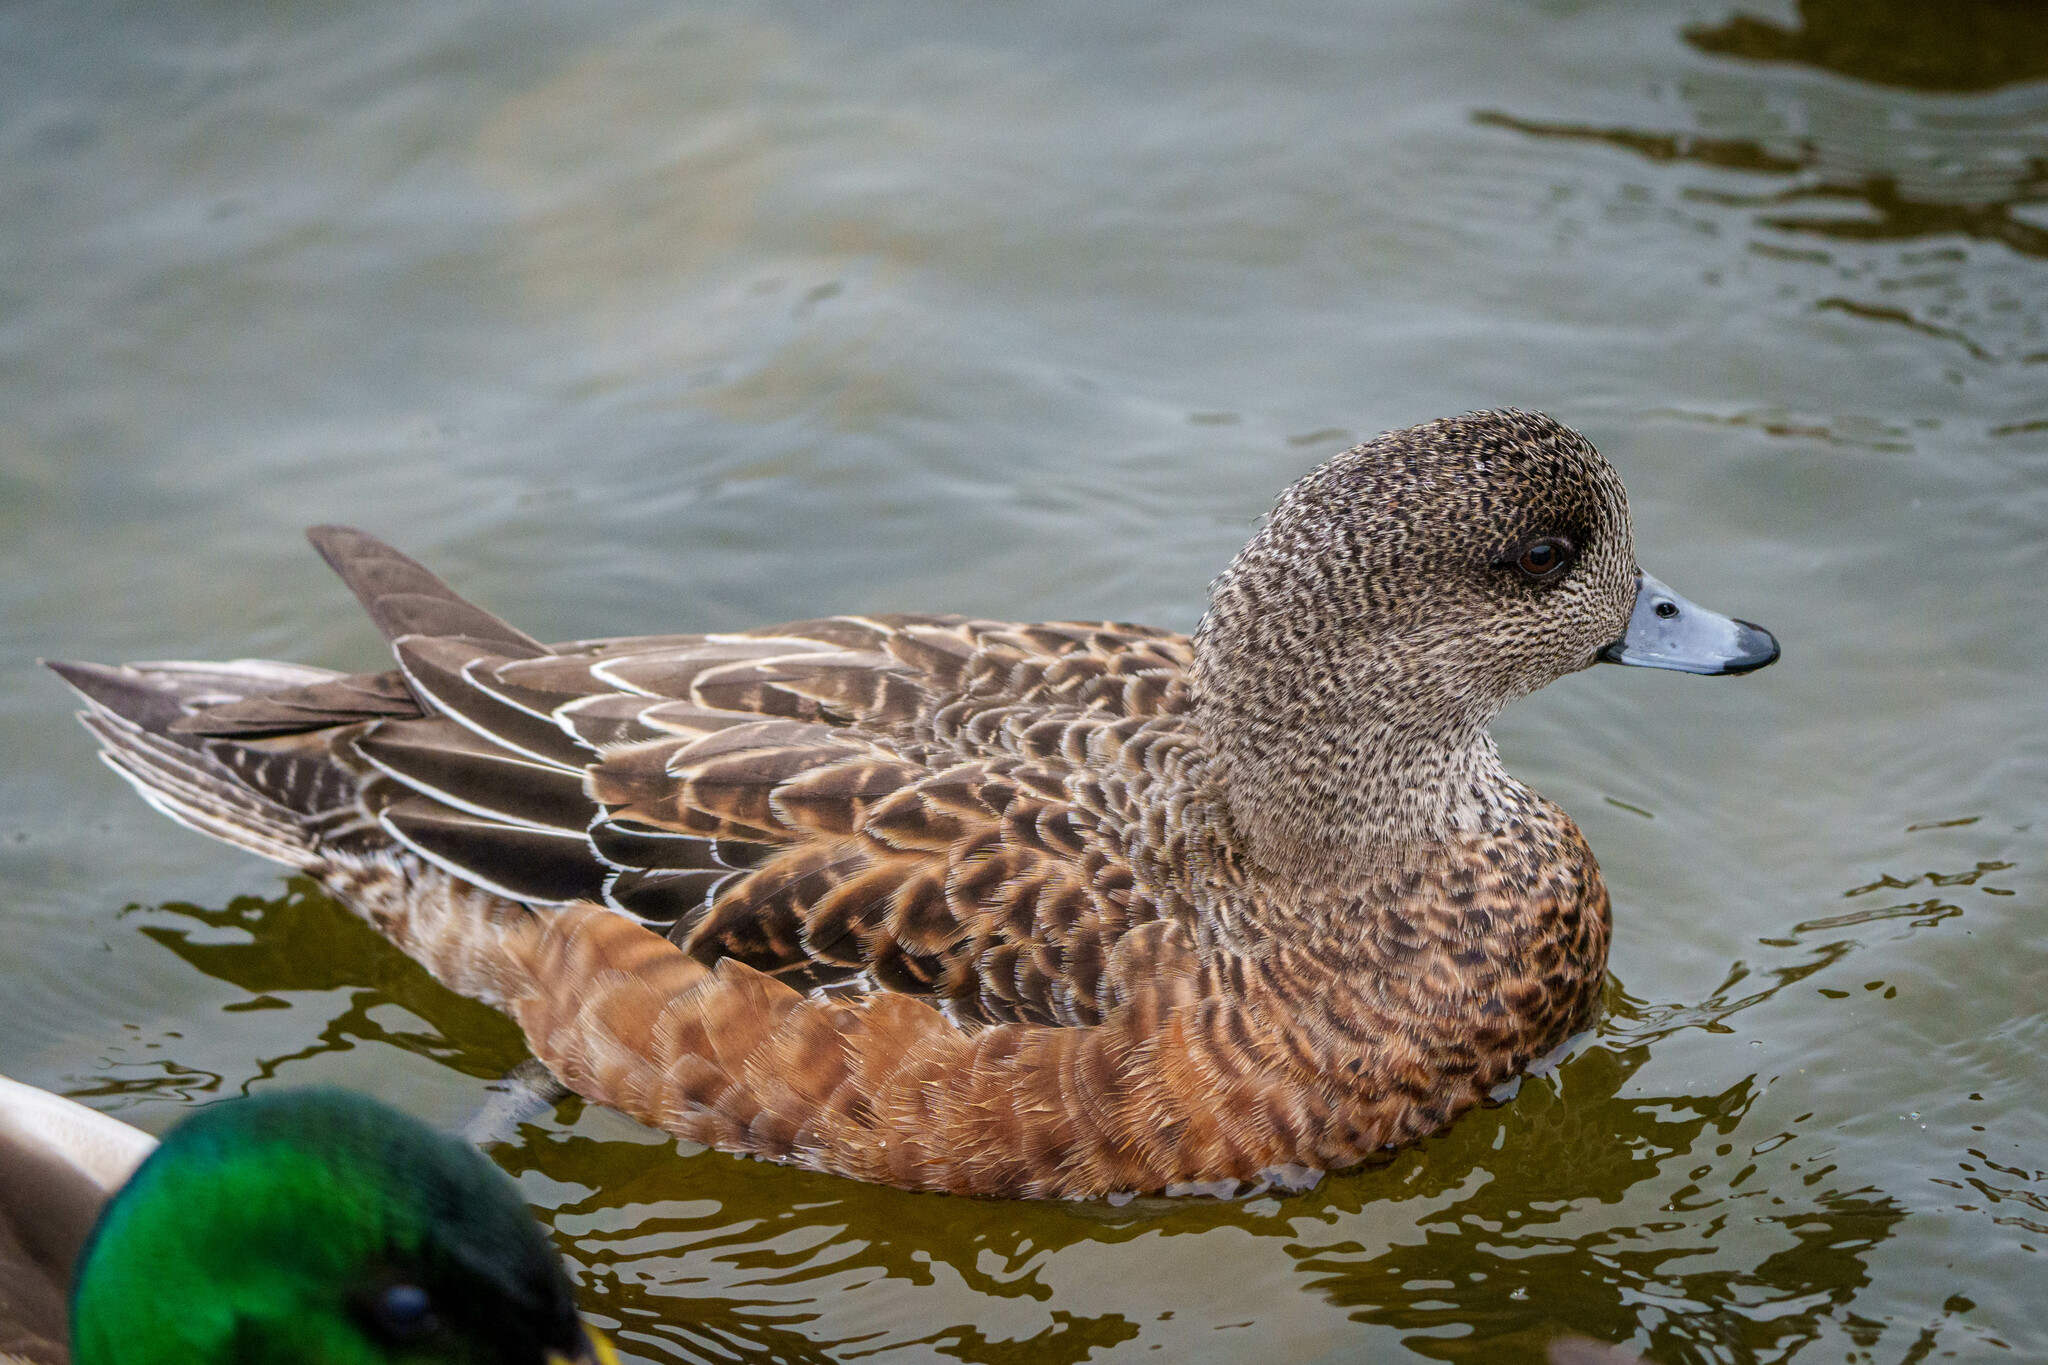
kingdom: Animalia
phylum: Chordata
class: Aves
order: Anseriformes
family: Anatidae
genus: Mareca
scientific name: Mareca americana
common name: American wigeon
